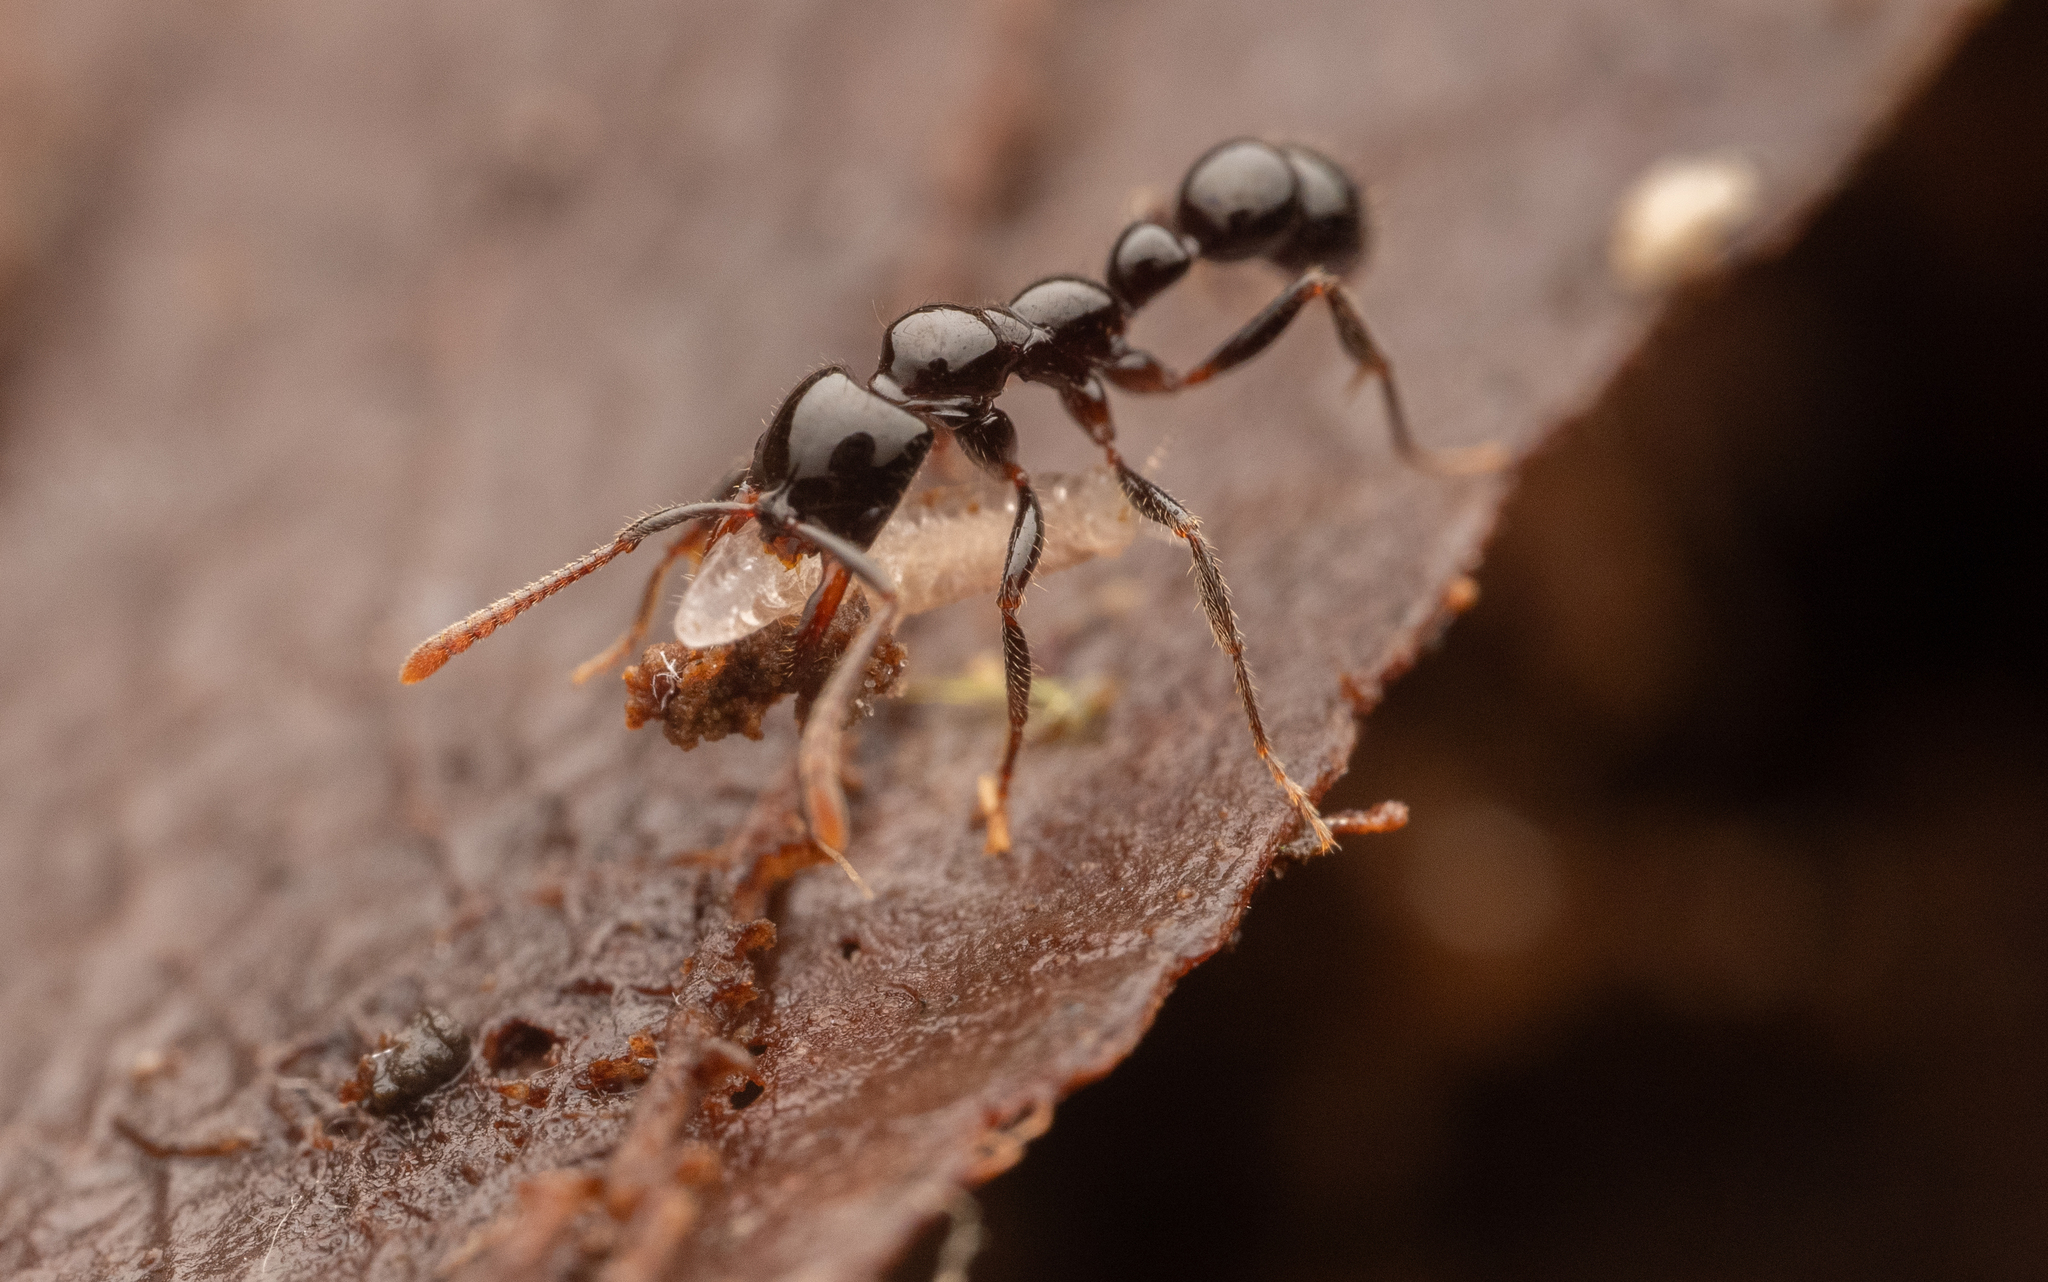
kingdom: Animalia
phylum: Arthropoda
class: Insecta
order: Hymenoptera
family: Formicidae
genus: Myopias
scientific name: Myopias latinoda
